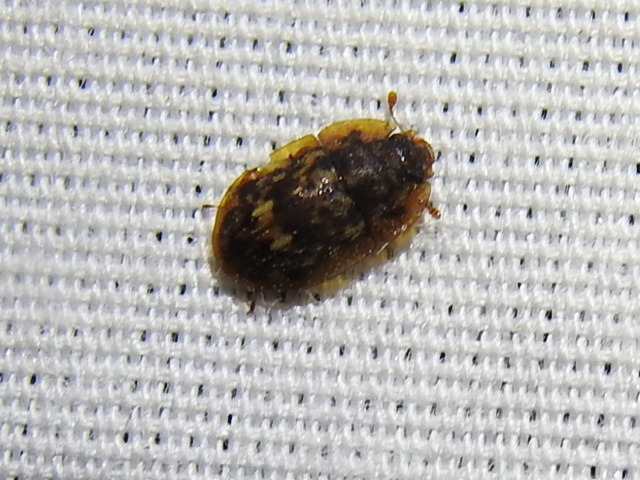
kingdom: Animalia
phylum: Arthropoda
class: Insecta
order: Coleoptera
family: Nitidulidae
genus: Lobiopa
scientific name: Lobiopa insularis
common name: Sap beetle
